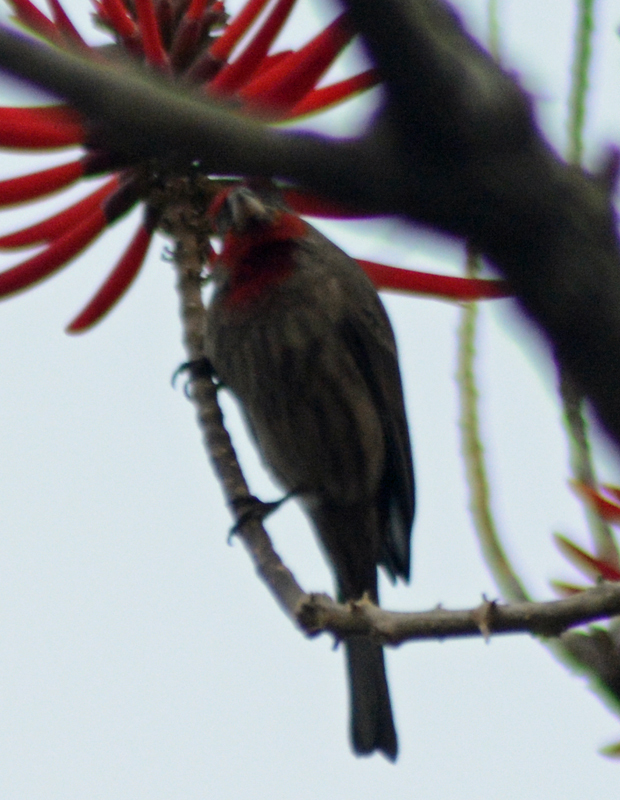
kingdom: Animalia
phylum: Chordata
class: Aves
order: Passeriformes
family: Fringillidae
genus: Haemorhous
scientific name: Haemorhous mexicanus
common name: House finch
